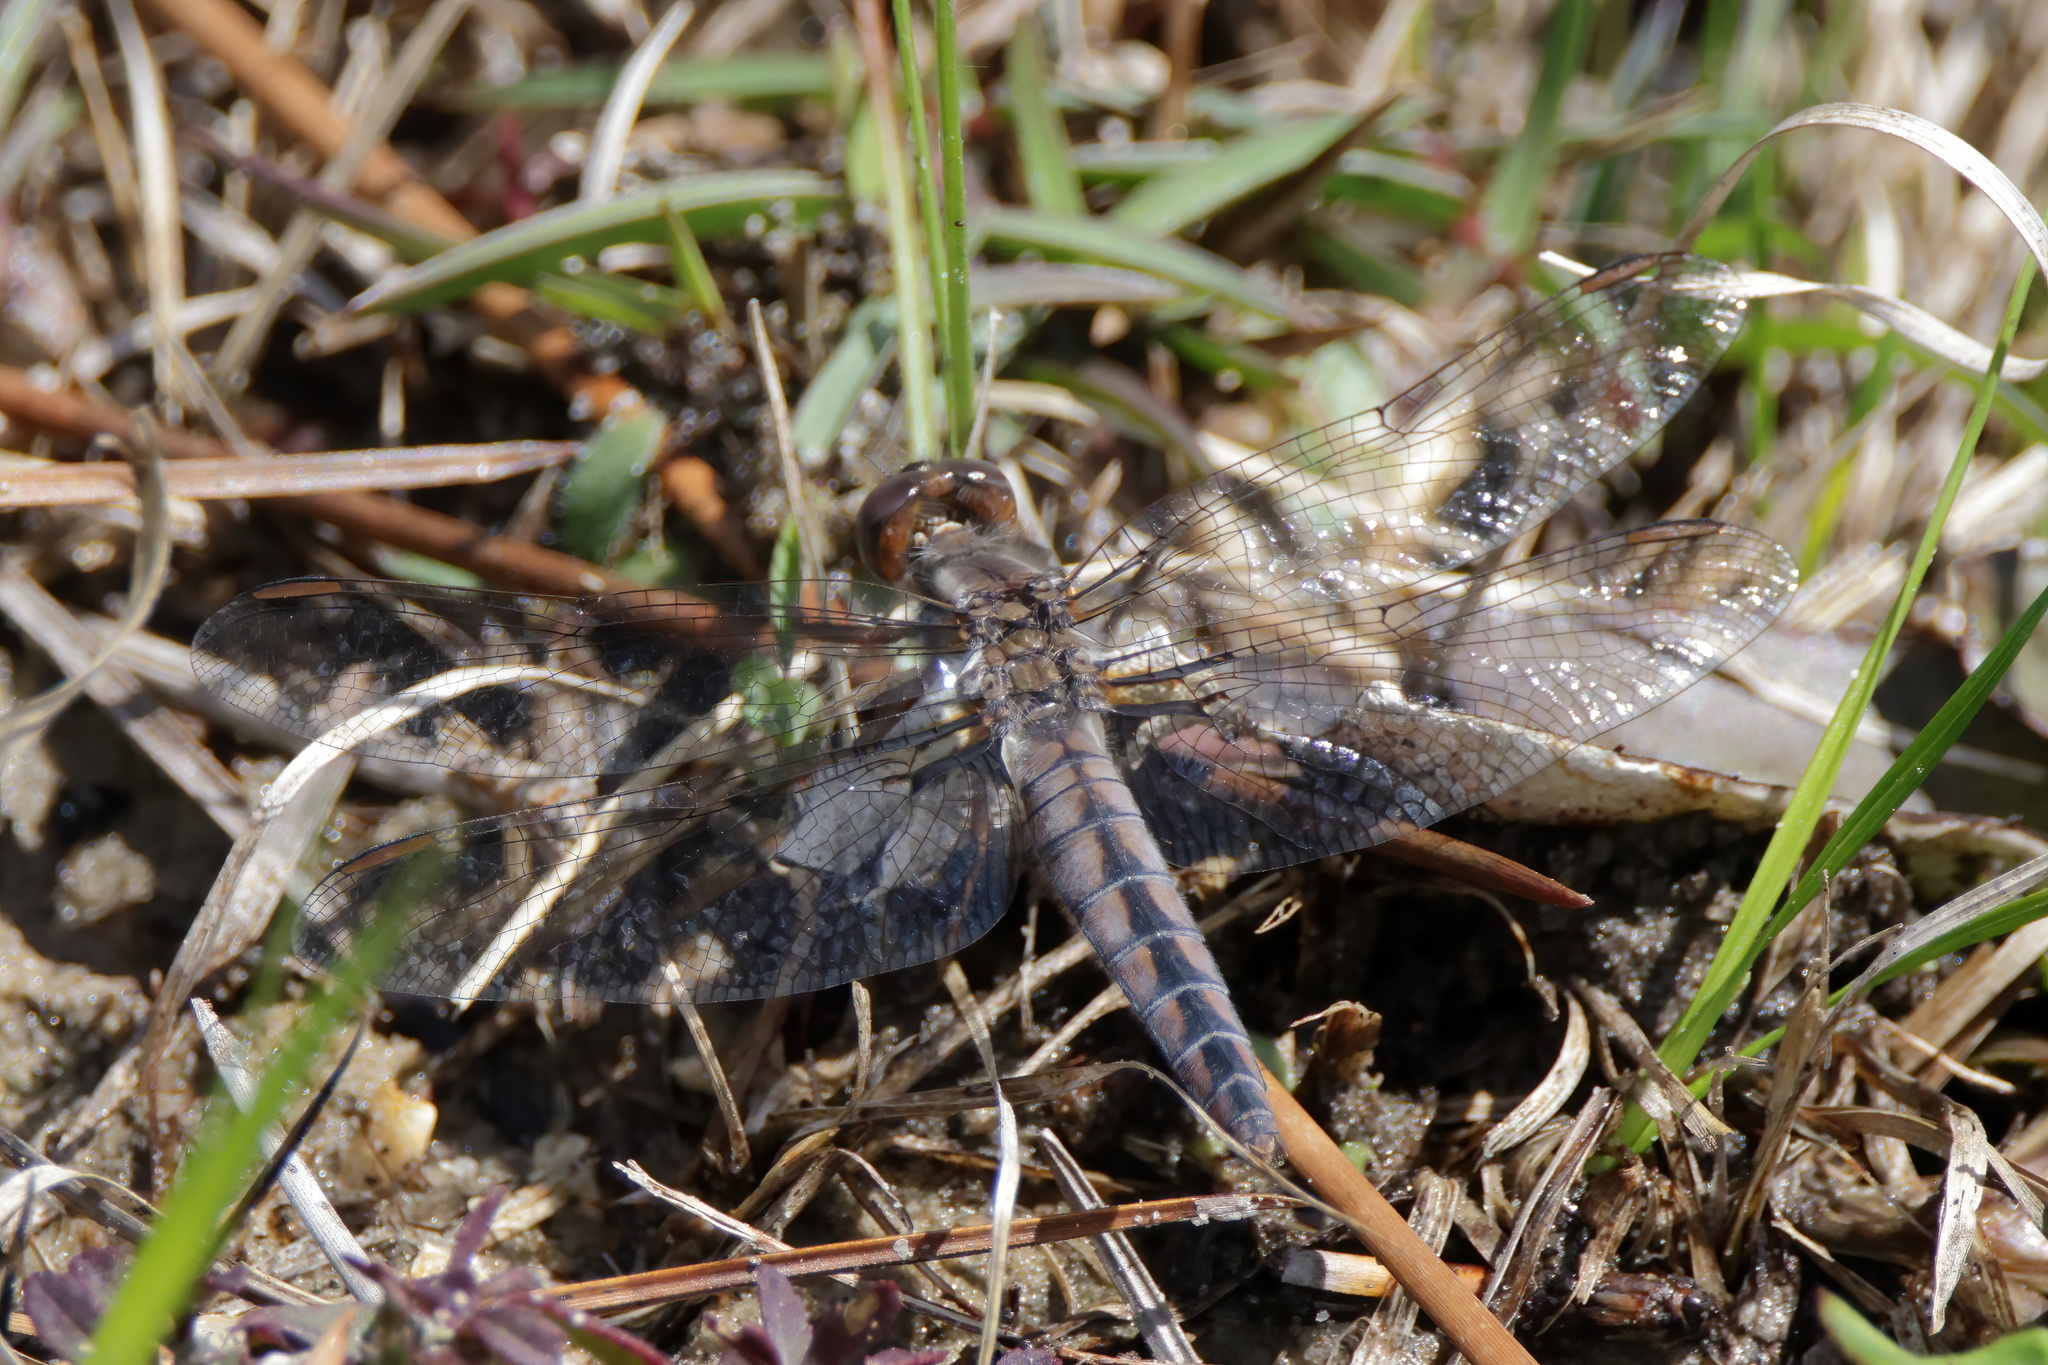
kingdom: Animalia
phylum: Arthropoda
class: Insecta
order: Odonata
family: Libellulidae
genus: Ladona
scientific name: Ladona deplanata
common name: Blue corporal
